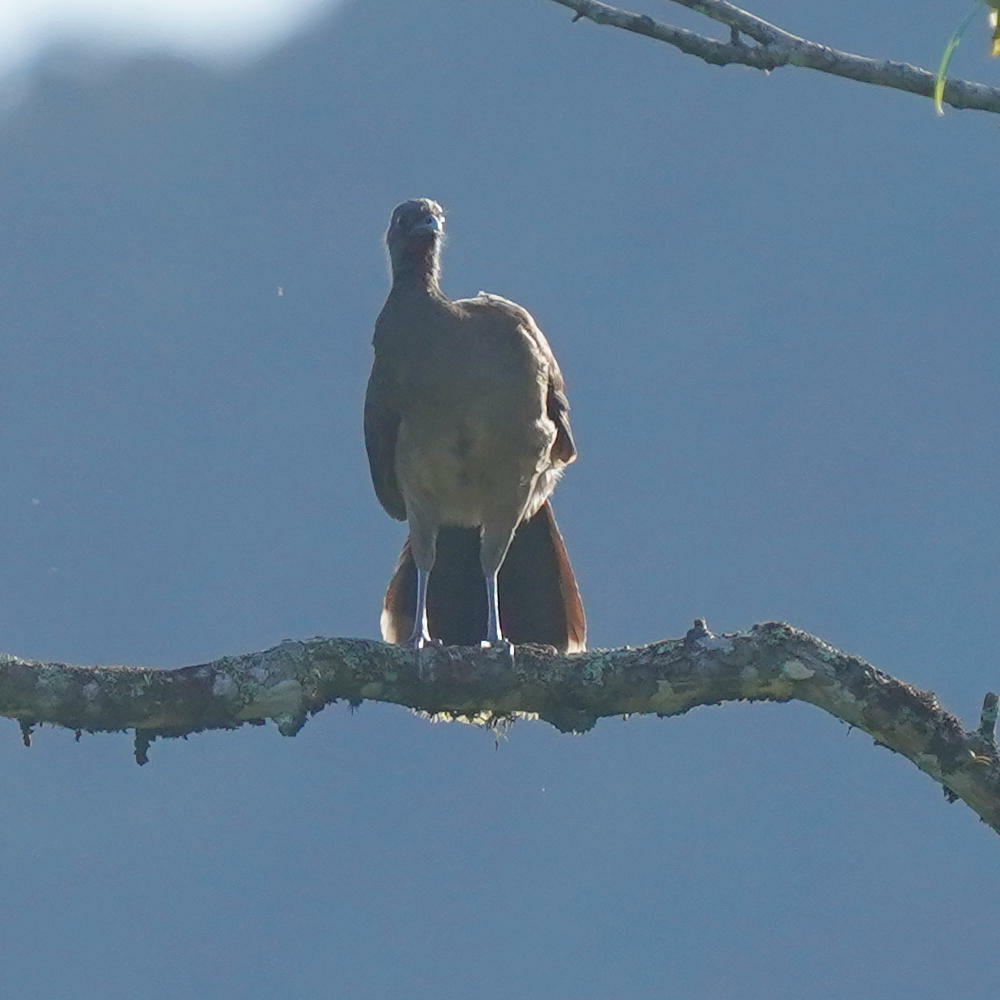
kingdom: Animalia
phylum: Chordata
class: Aves
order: Galliformes
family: Cracidae
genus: Ortalis
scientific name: Ortalis cinereiceps
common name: Grey-headed chachalaca
